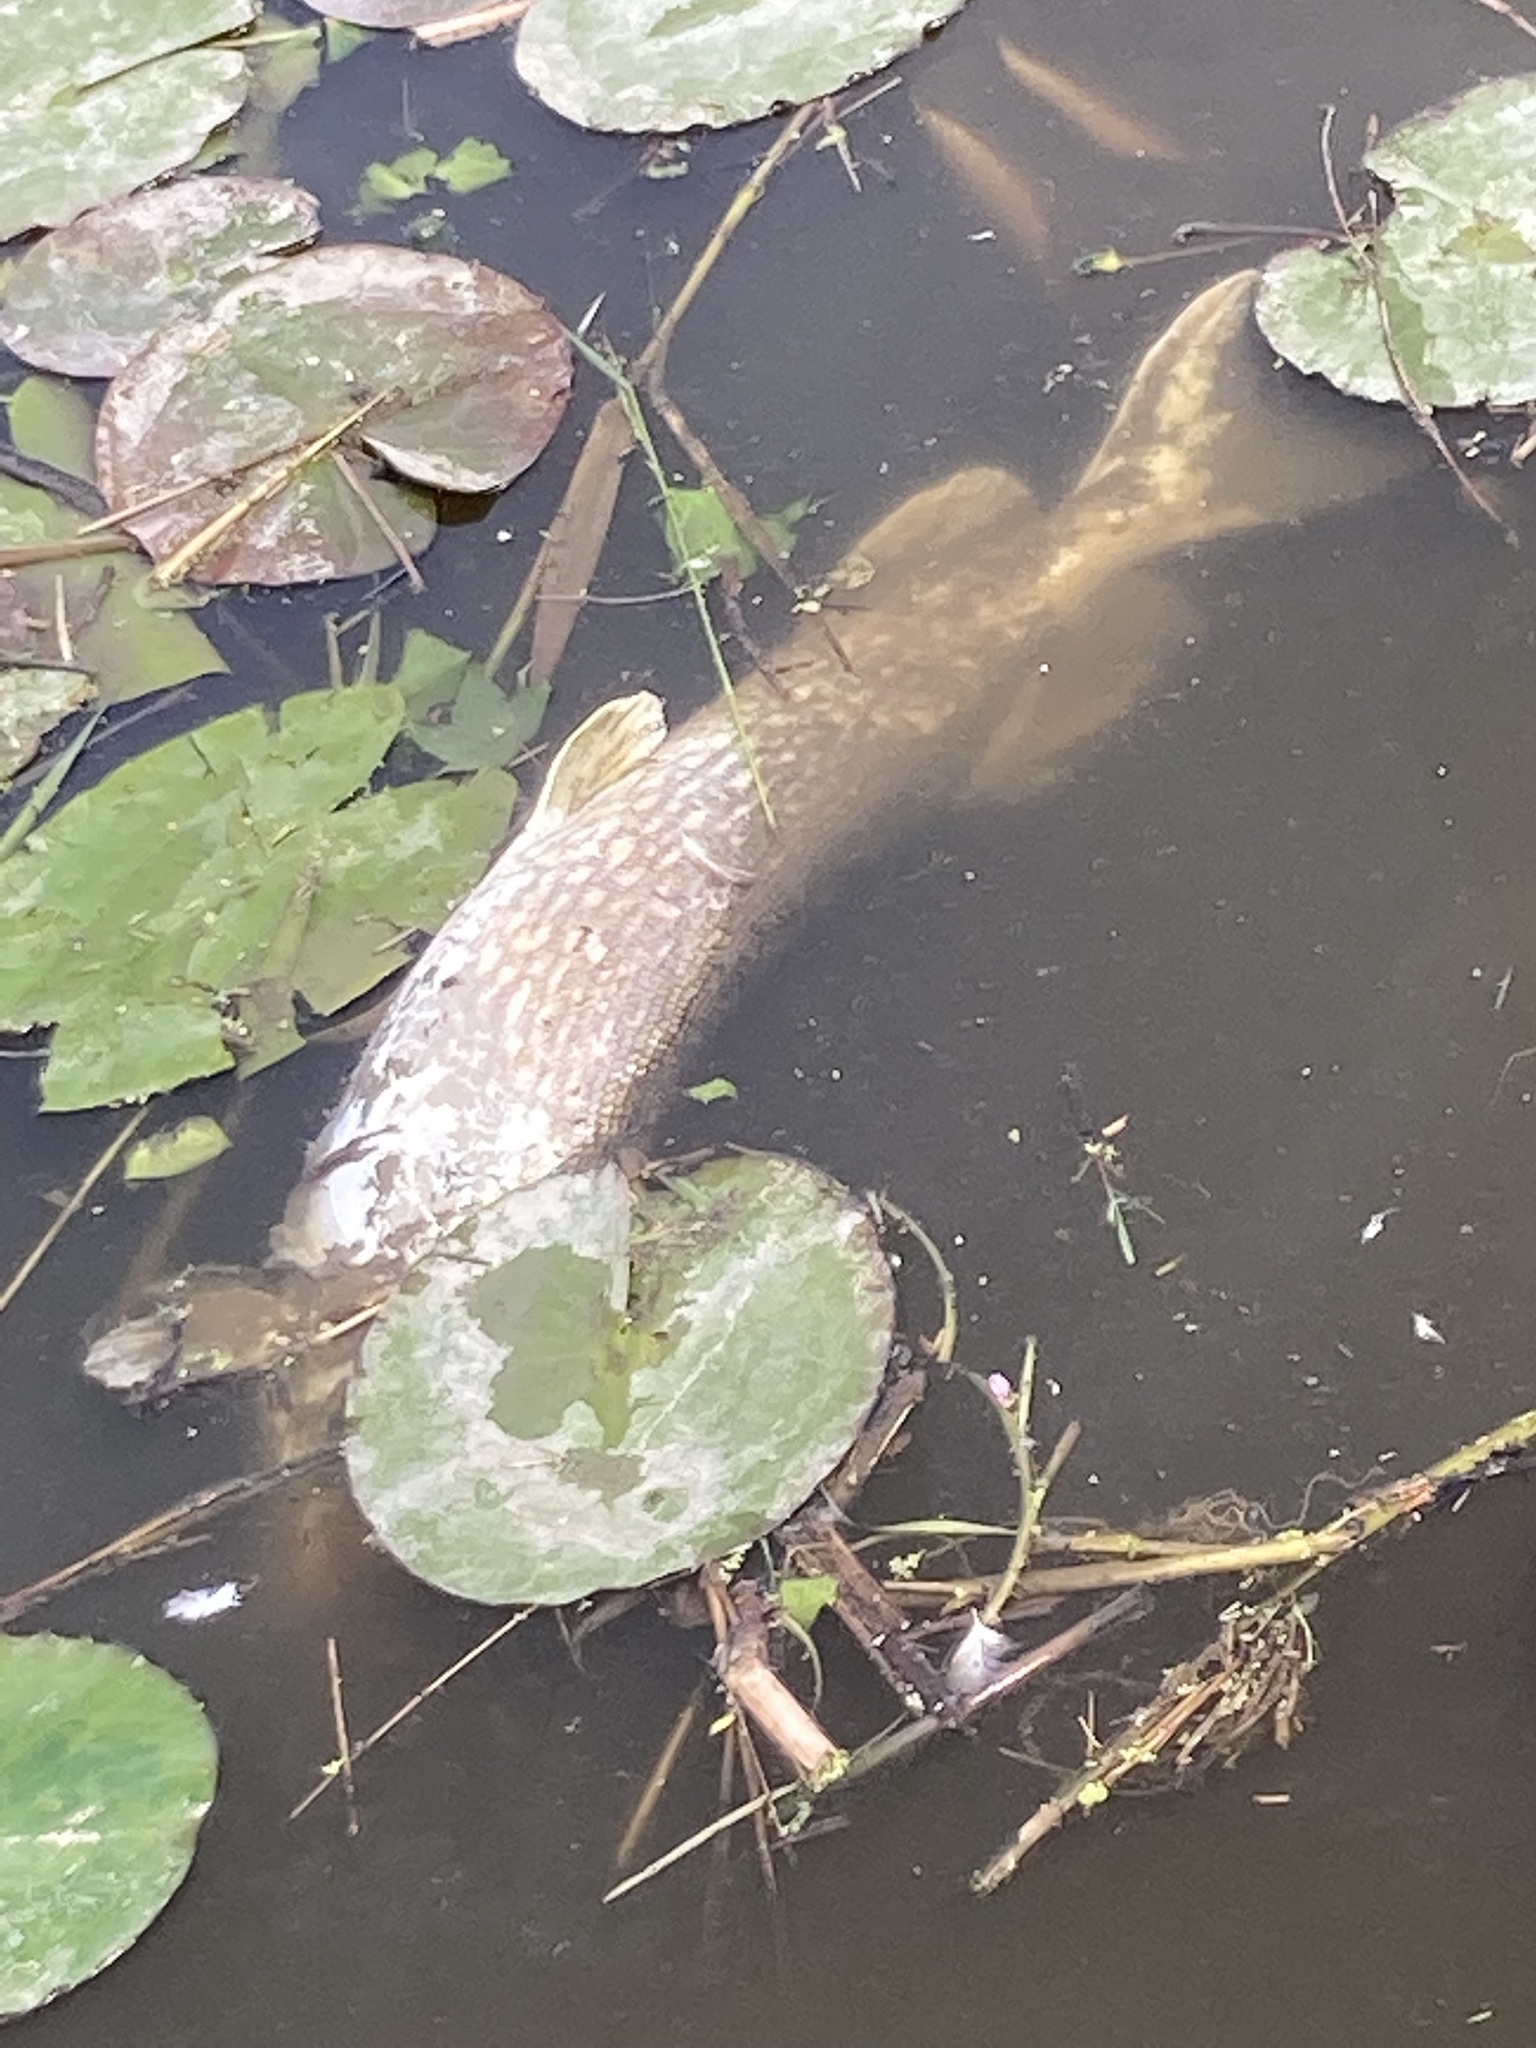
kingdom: Animalia
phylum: Chordata
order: Esociformes
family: Esocidae
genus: Esox
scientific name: Esox lucius
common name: Northern pike
